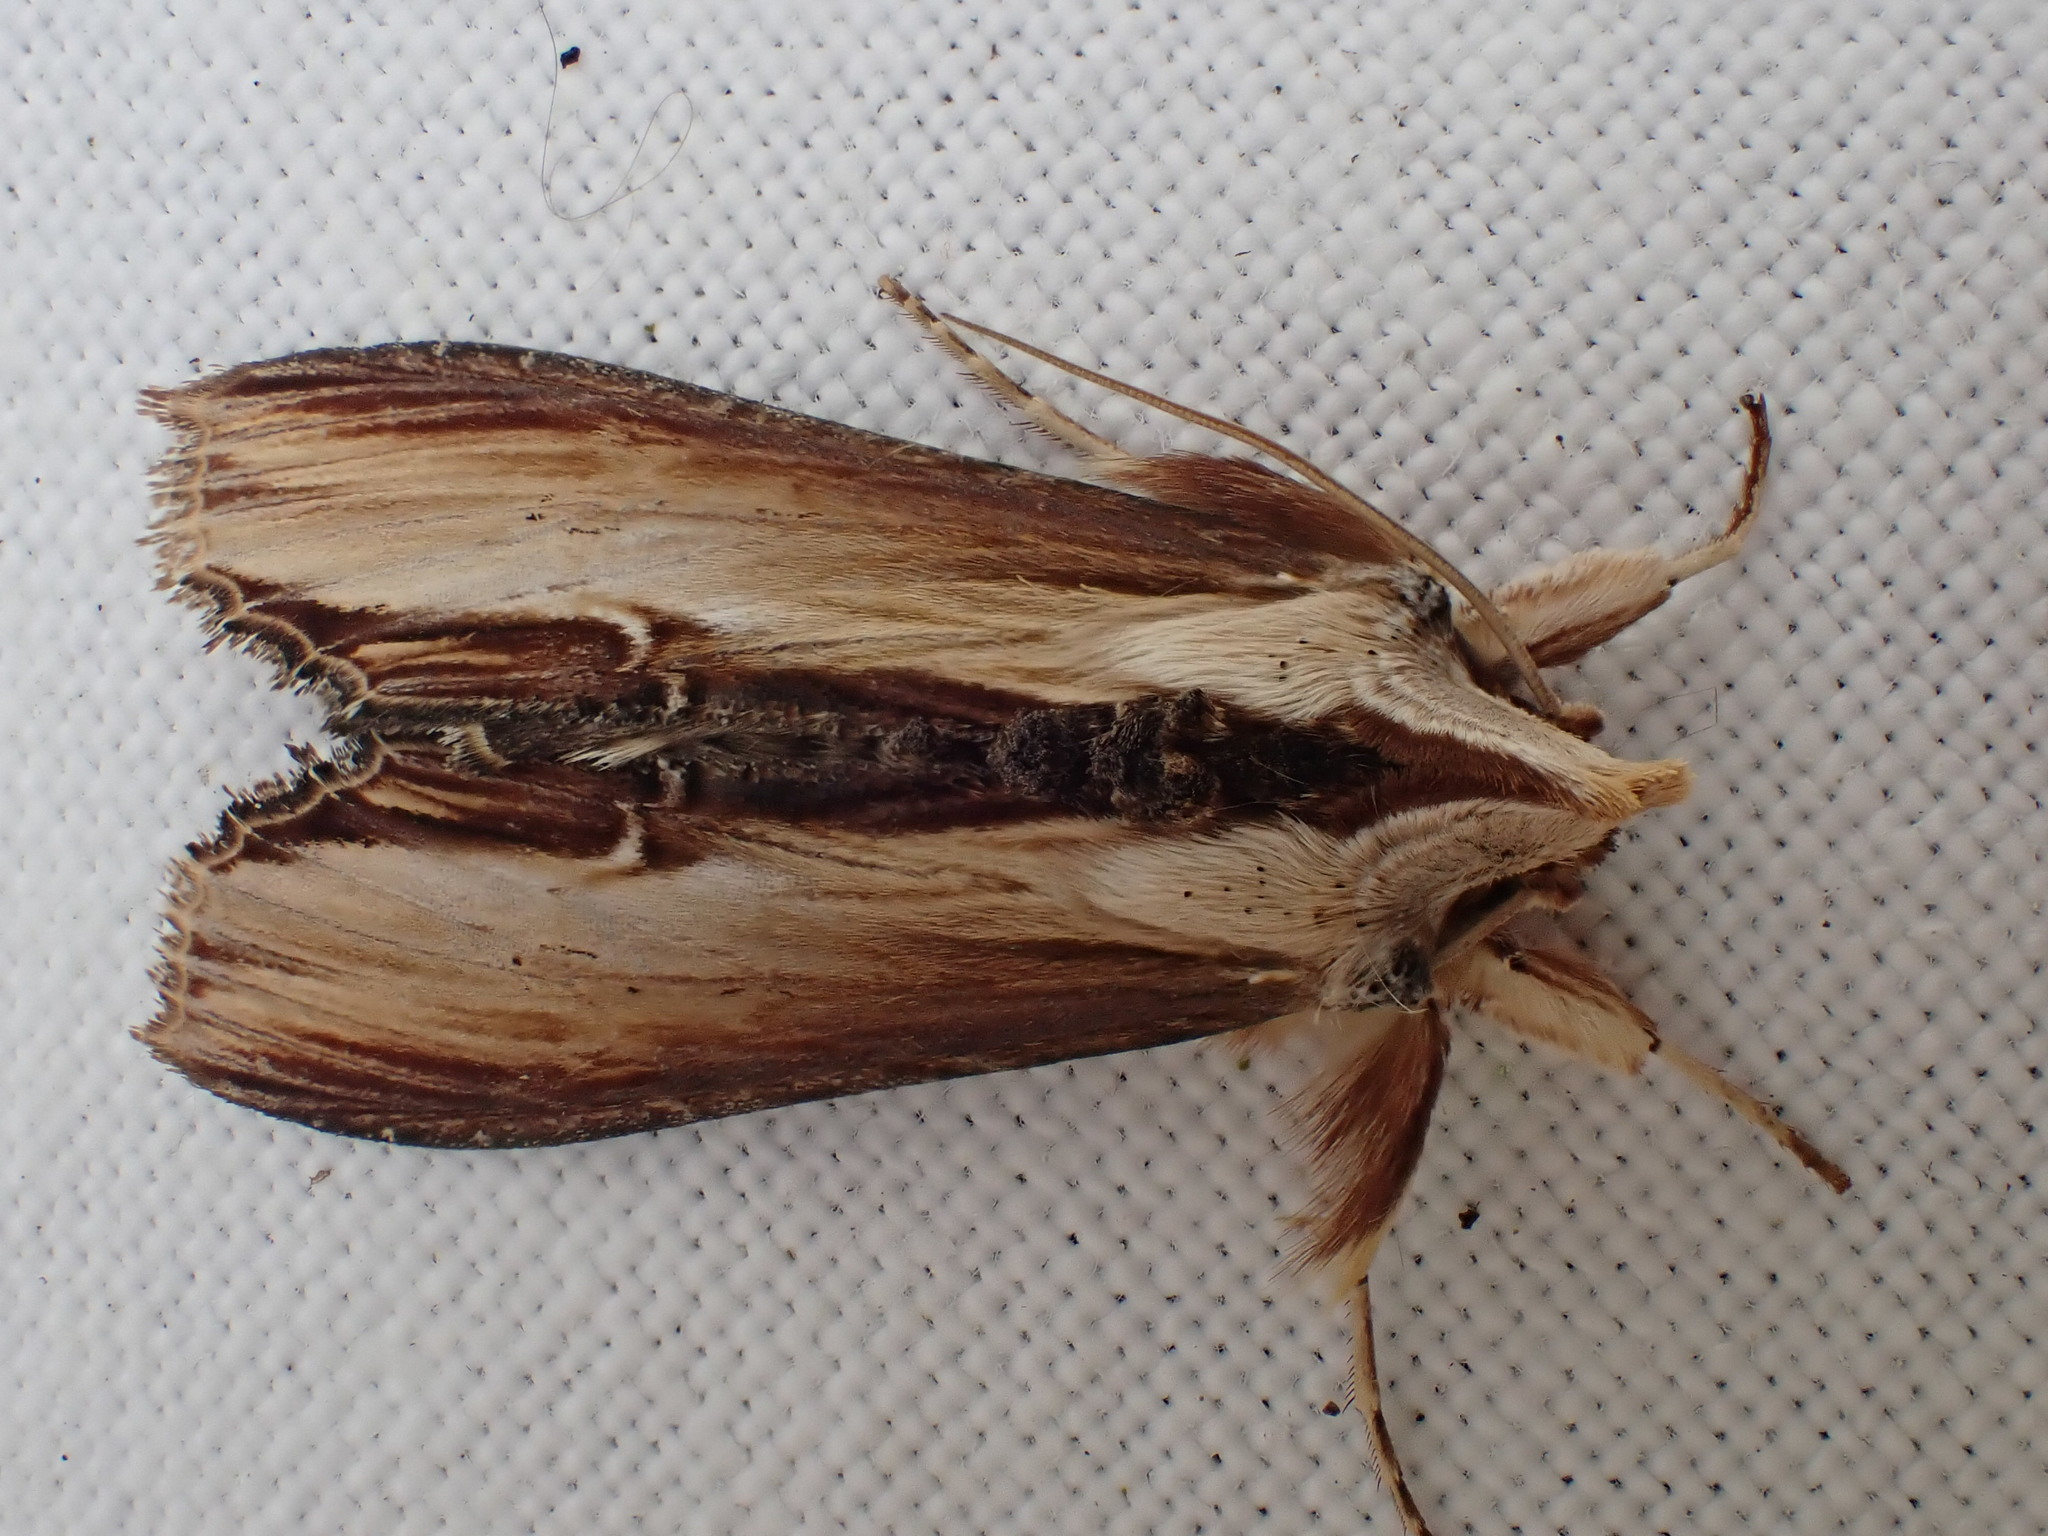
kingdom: Animalia
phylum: Arthropoda
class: Insecta
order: Lepidoptera
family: Noctuidae
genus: Cucullia
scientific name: Cucullia verbasci
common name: Mullein
